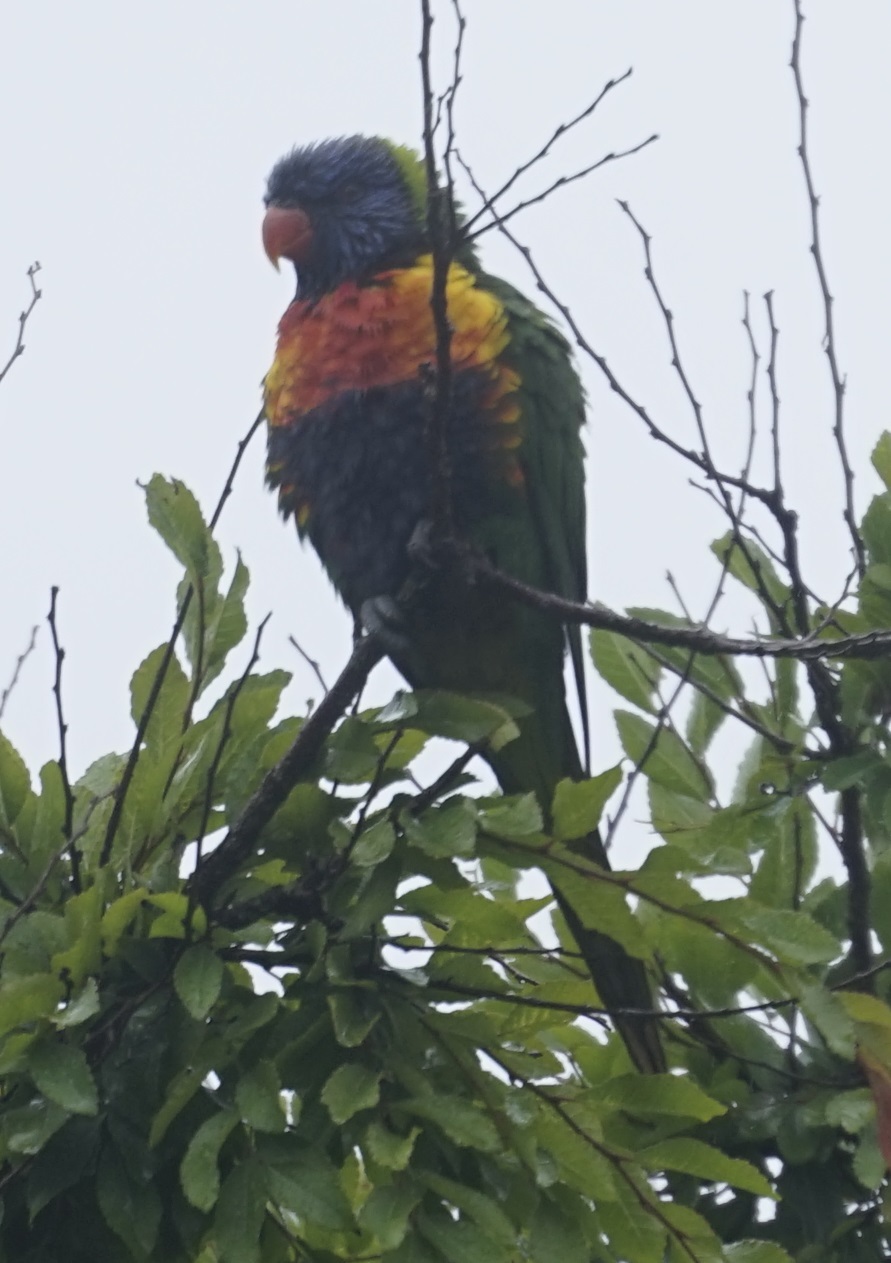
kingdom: Animalia
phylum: Chordata
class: Aves
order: Psittaciformes
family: Psittacidae
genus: Trichoglossus
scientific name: Trichoglossus haematodus
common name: Coconut lorikeet
